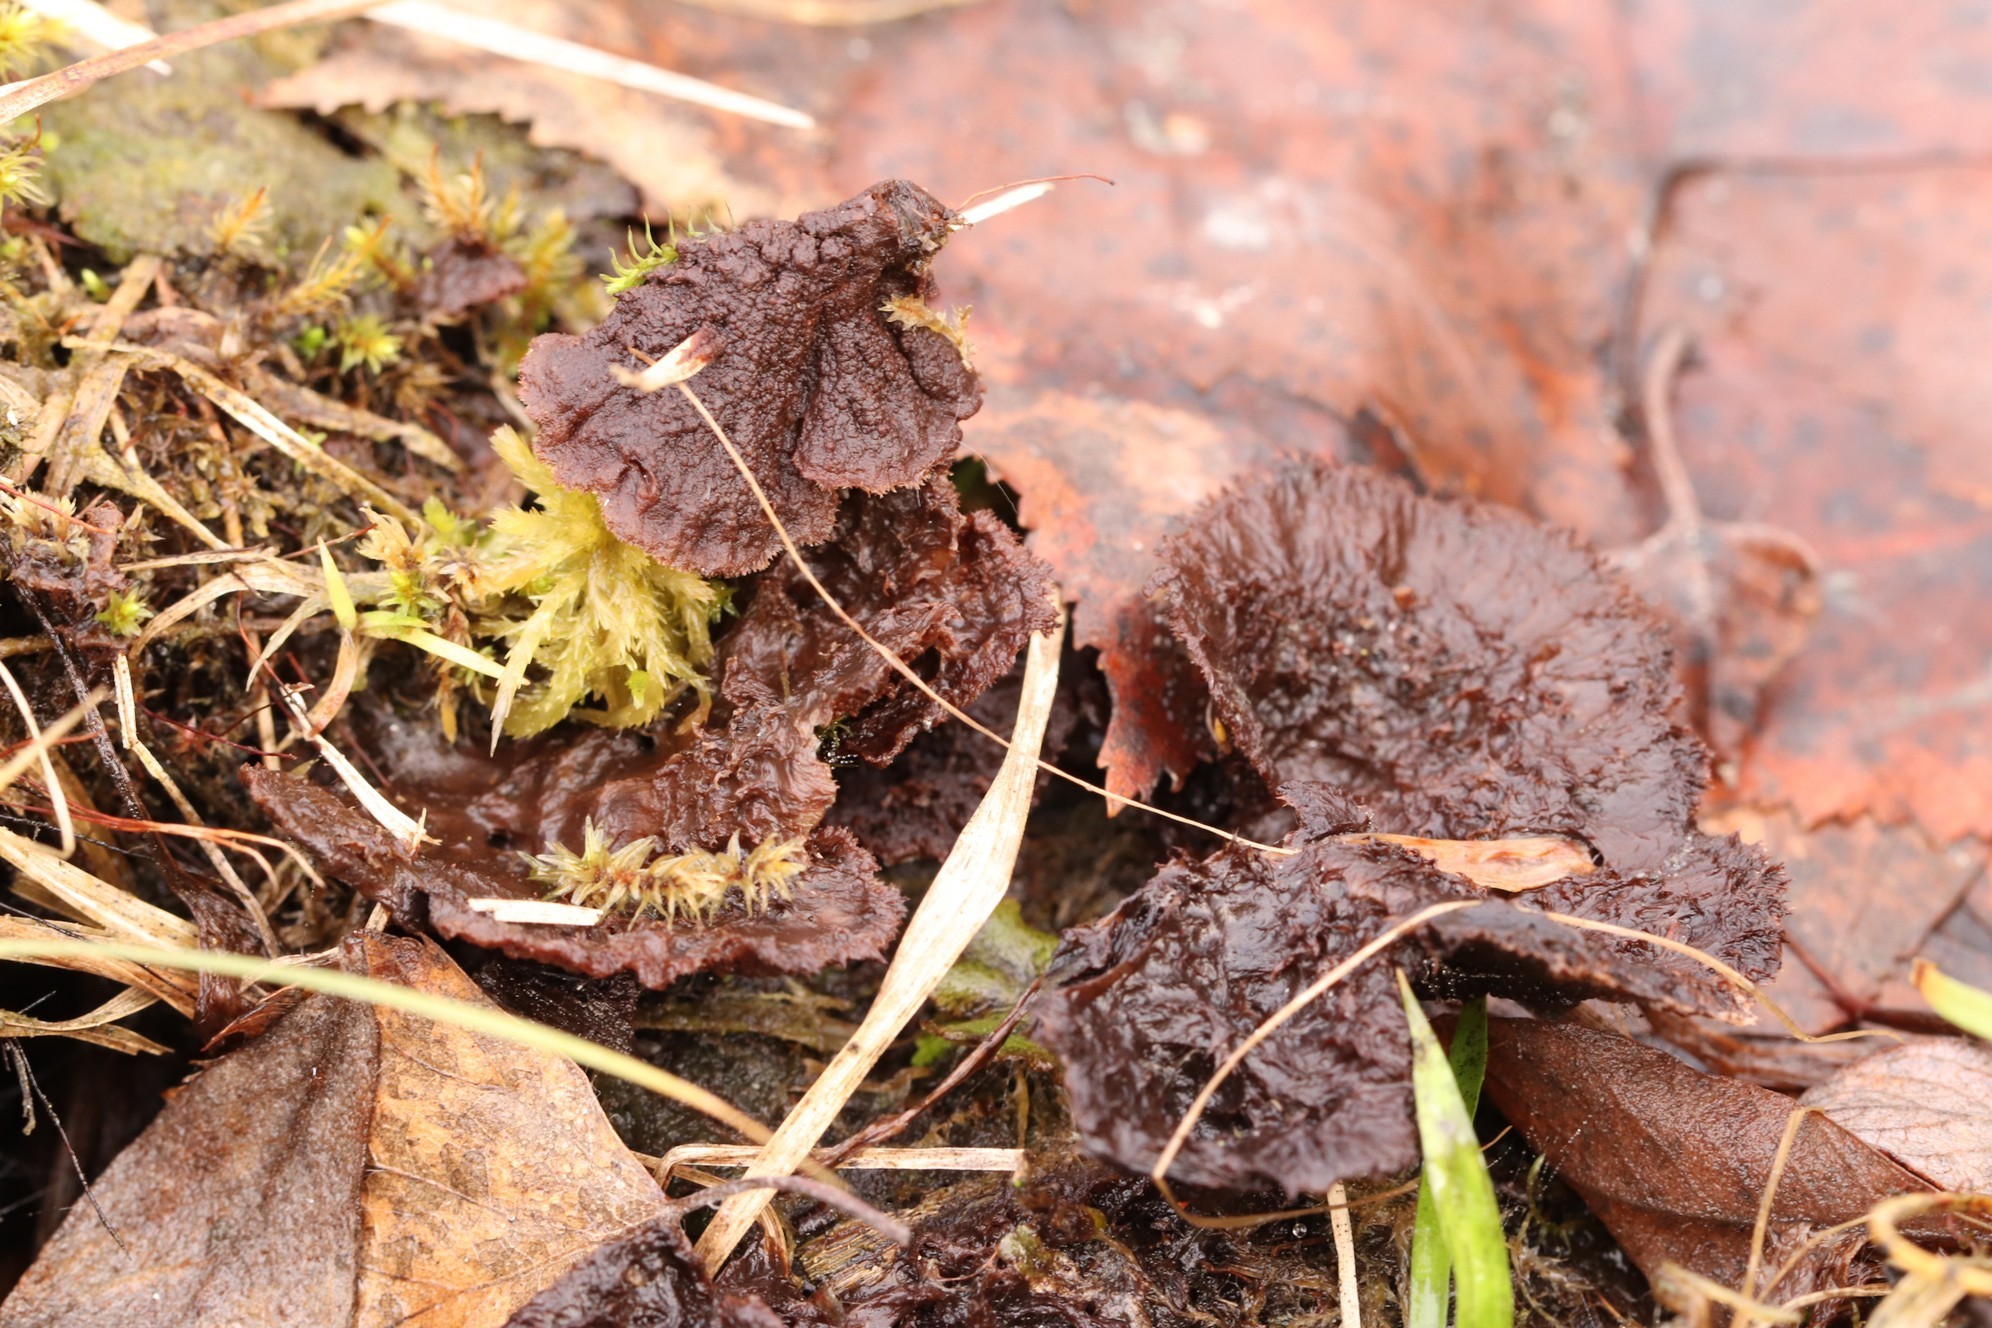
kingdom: Fungi
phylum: Basidiomycota
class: Agaricomycetes
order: Thelephorales
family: Thelephoraceae
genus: Thelephora
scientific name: Thelephora terrestris
